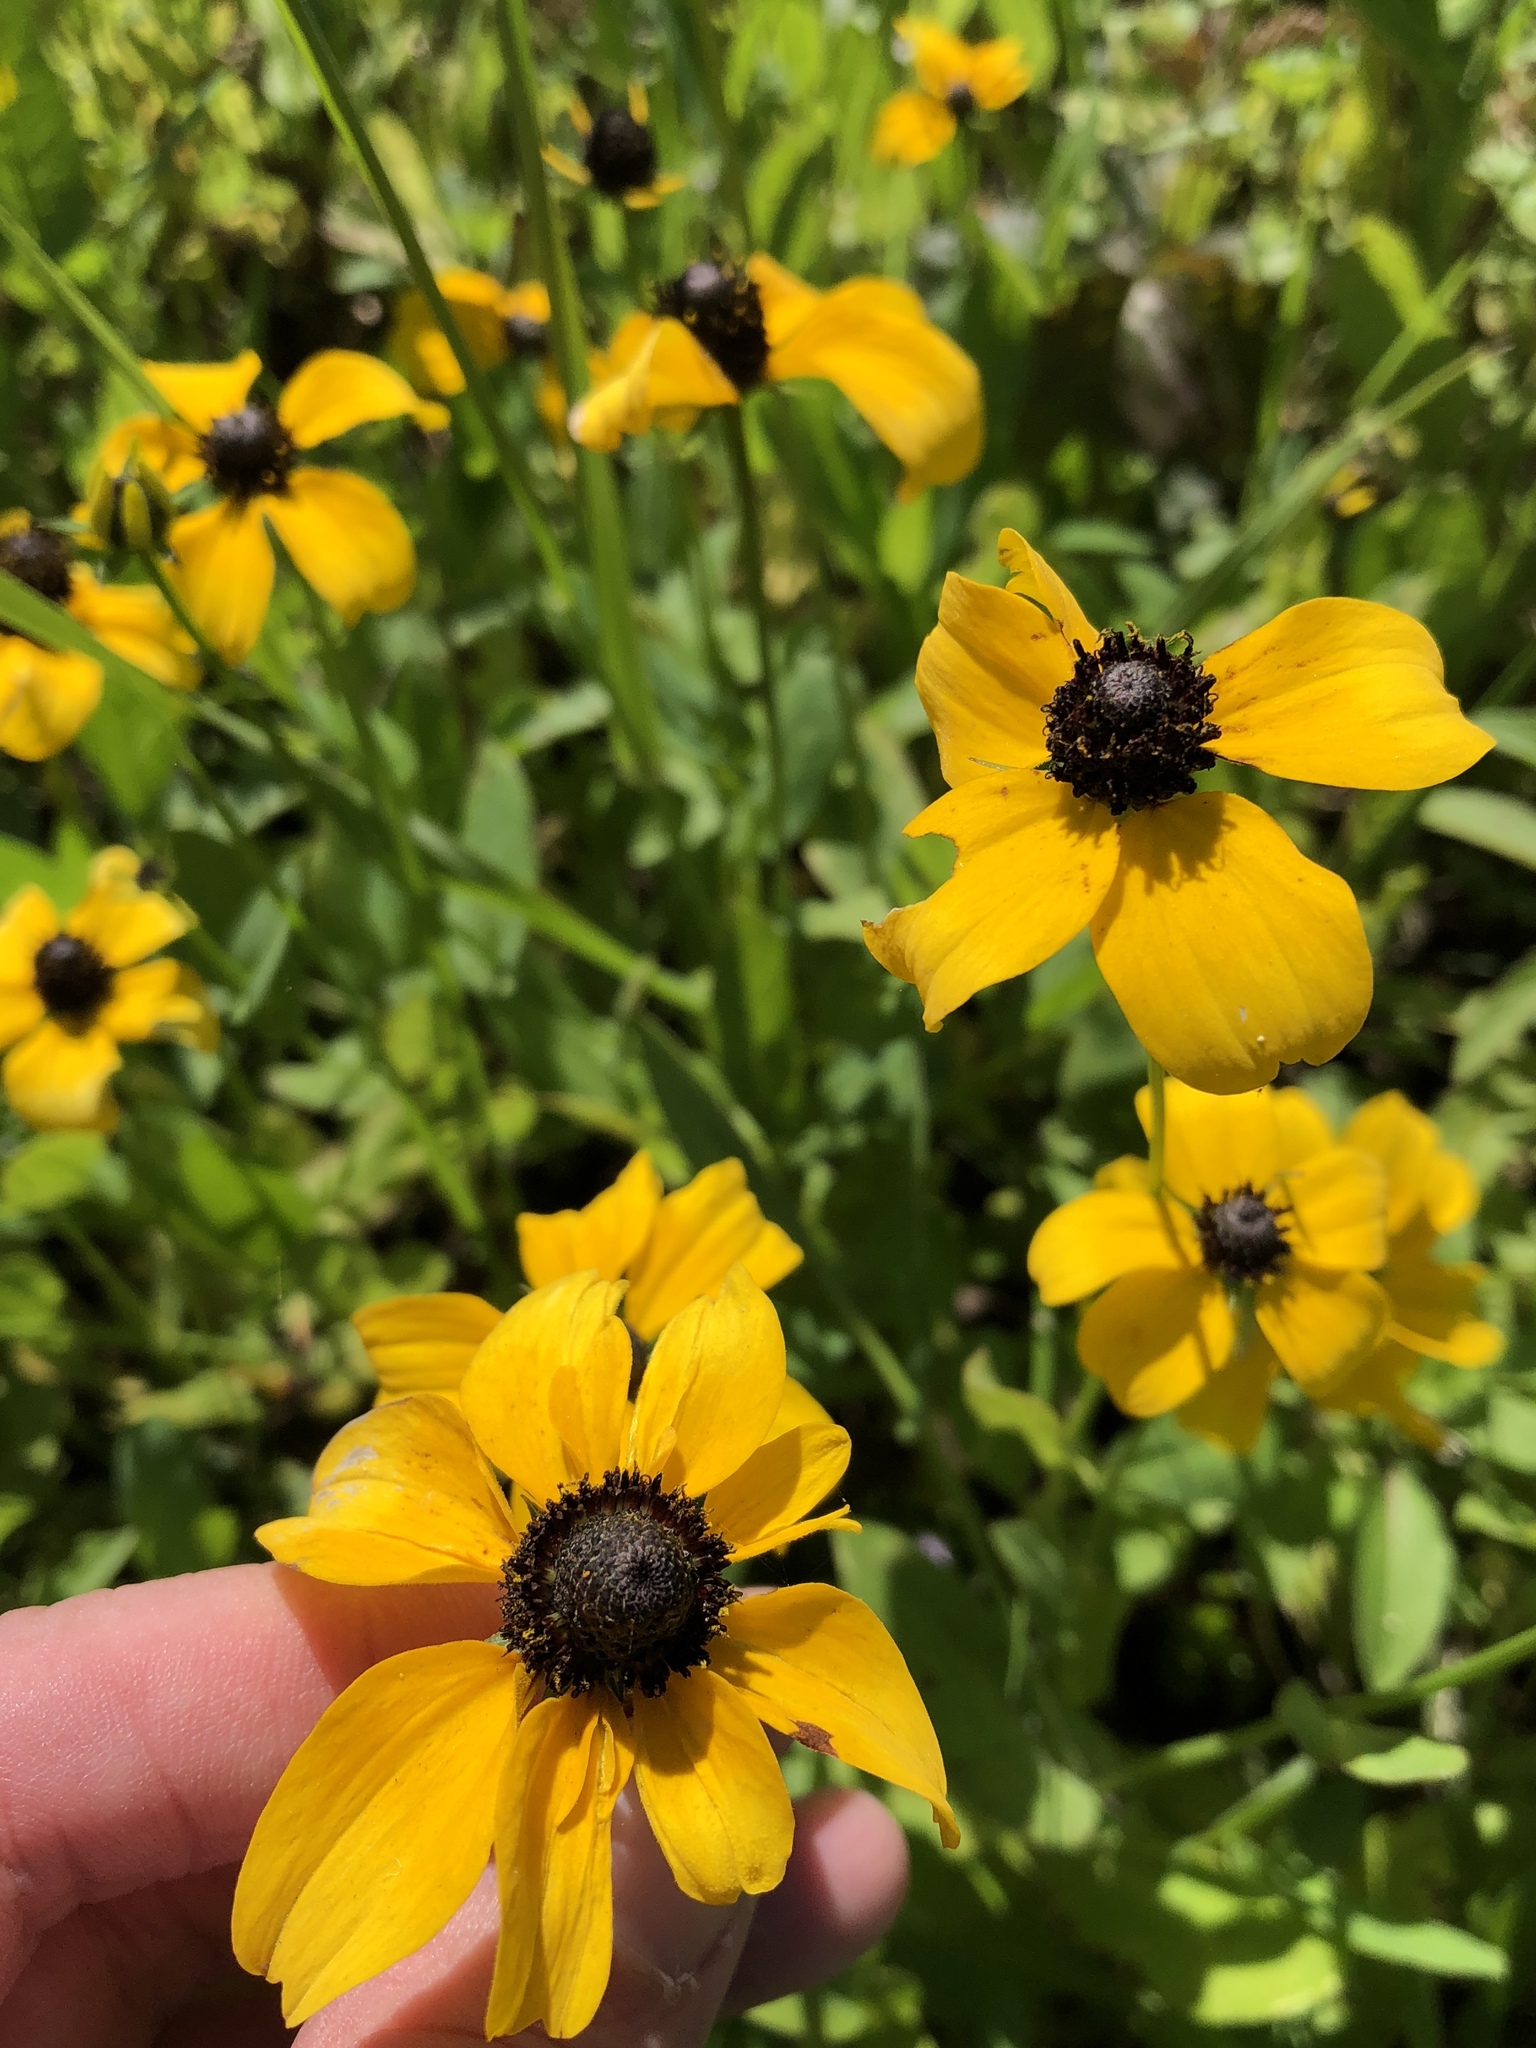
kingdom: Plantae
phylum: Tracheophyta
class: Magnoliopsida
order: Asterales
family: Asteraceae
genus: Rudbeckia
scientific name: Rudbeckia amplexicaulis
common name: Clasping-leaf coneflower
